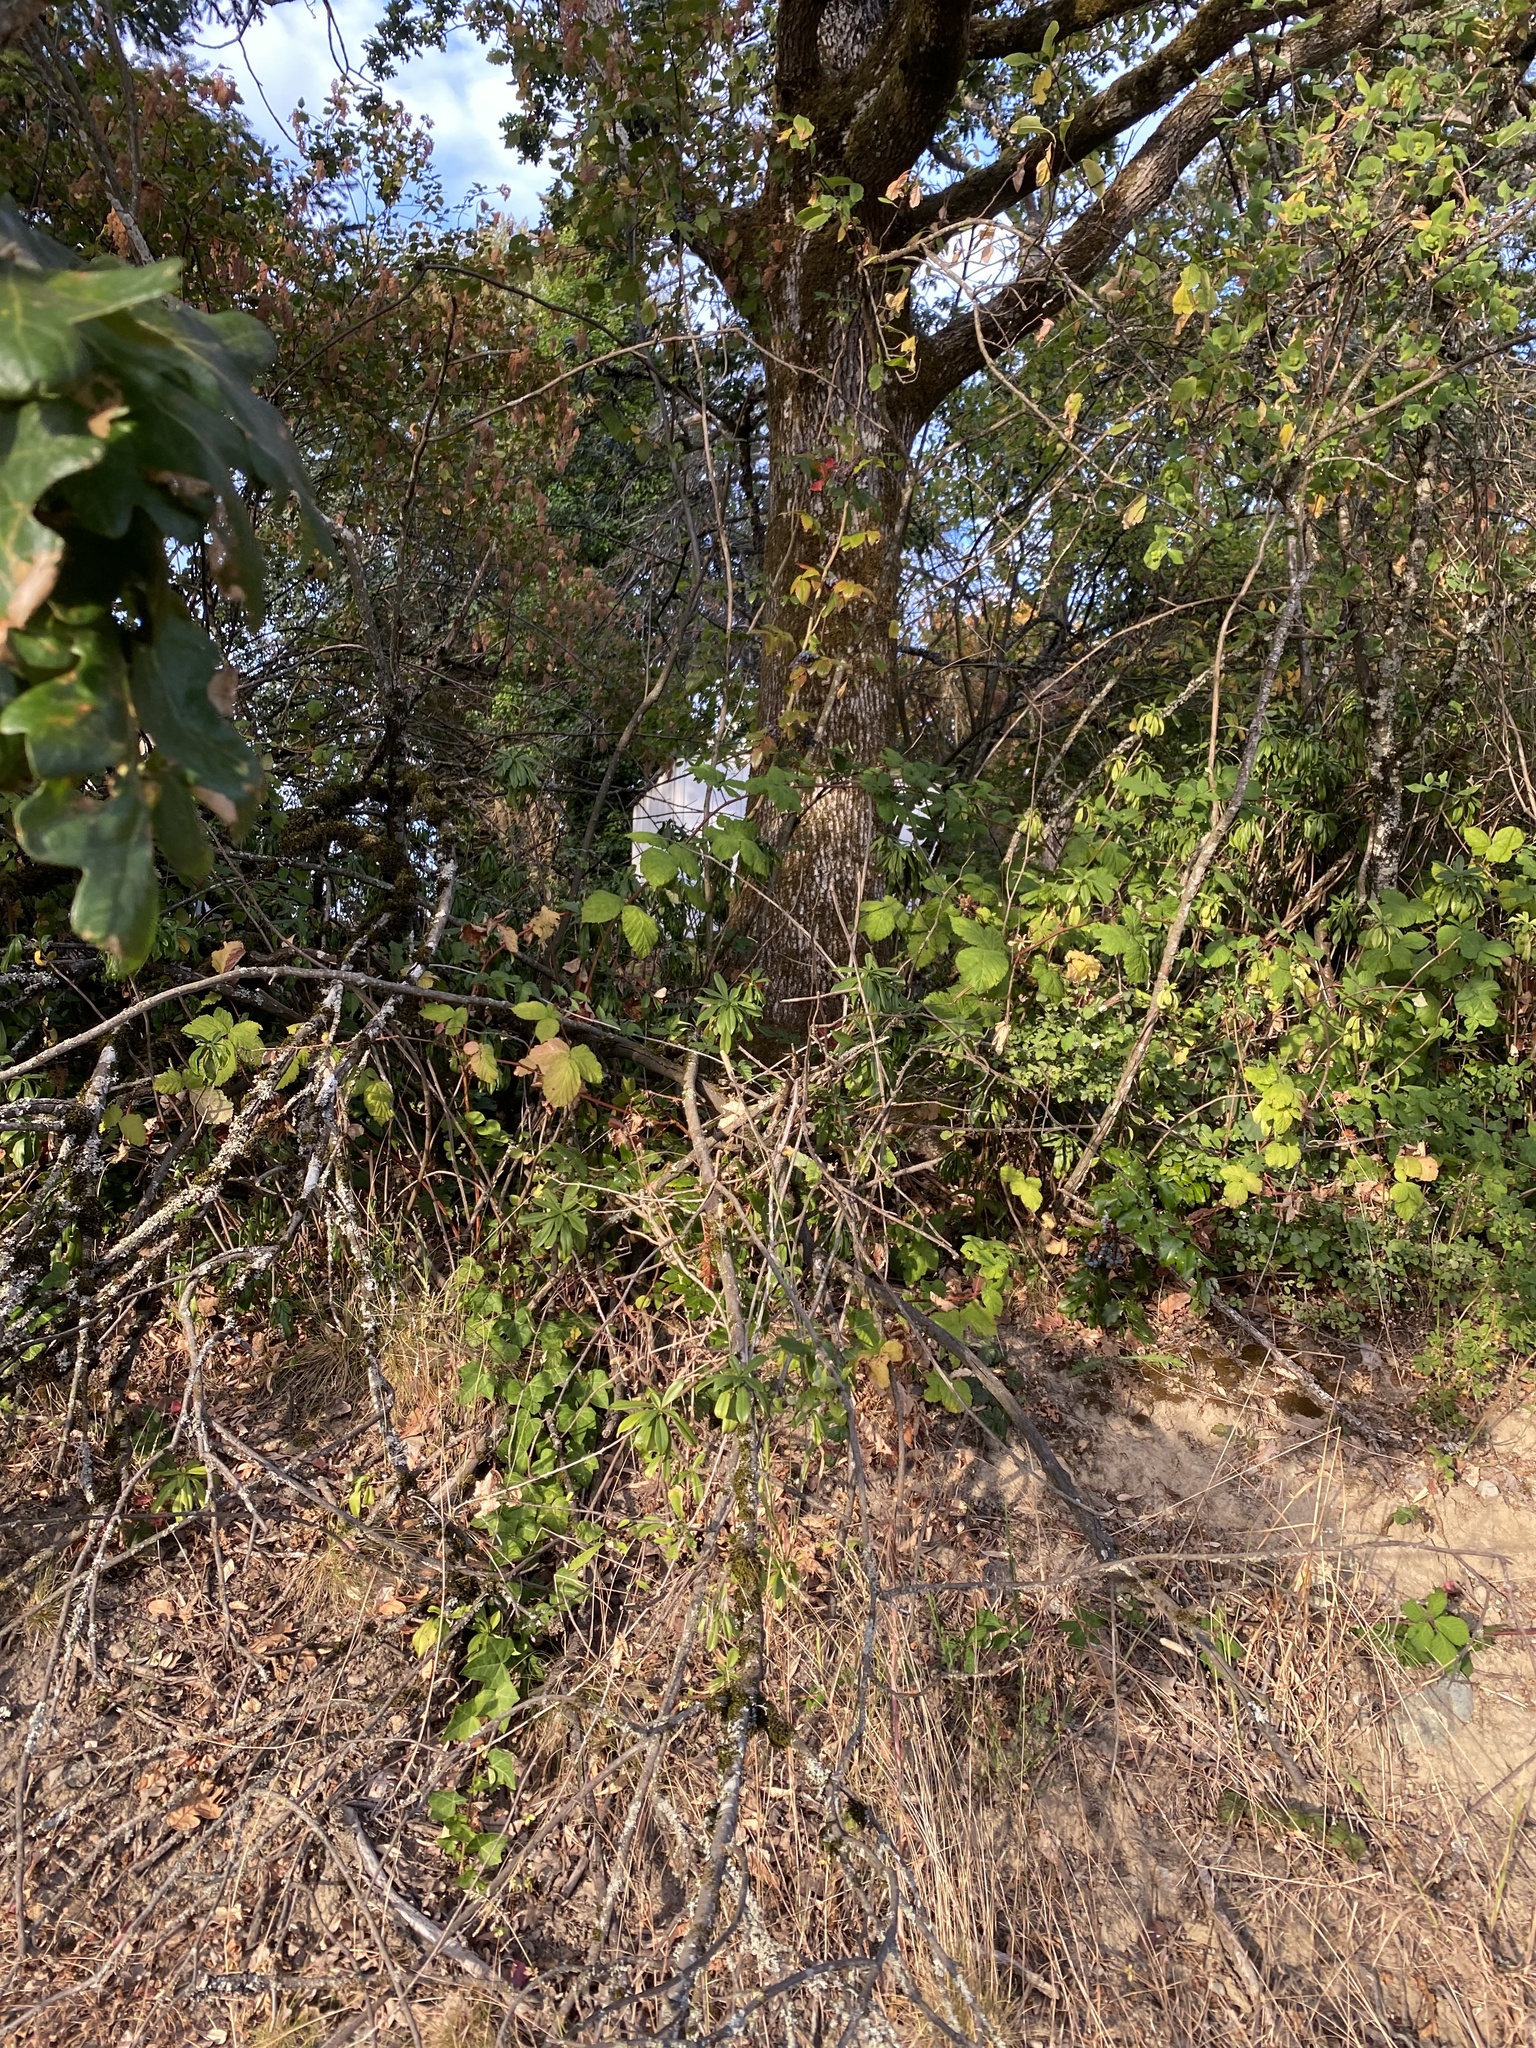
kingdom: Plantae
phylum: Tracheophyta
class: Magnoliopsida
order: Fagales
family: Fagaceae
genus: Quercus
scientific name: Quercus garryana
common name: Garry oak
